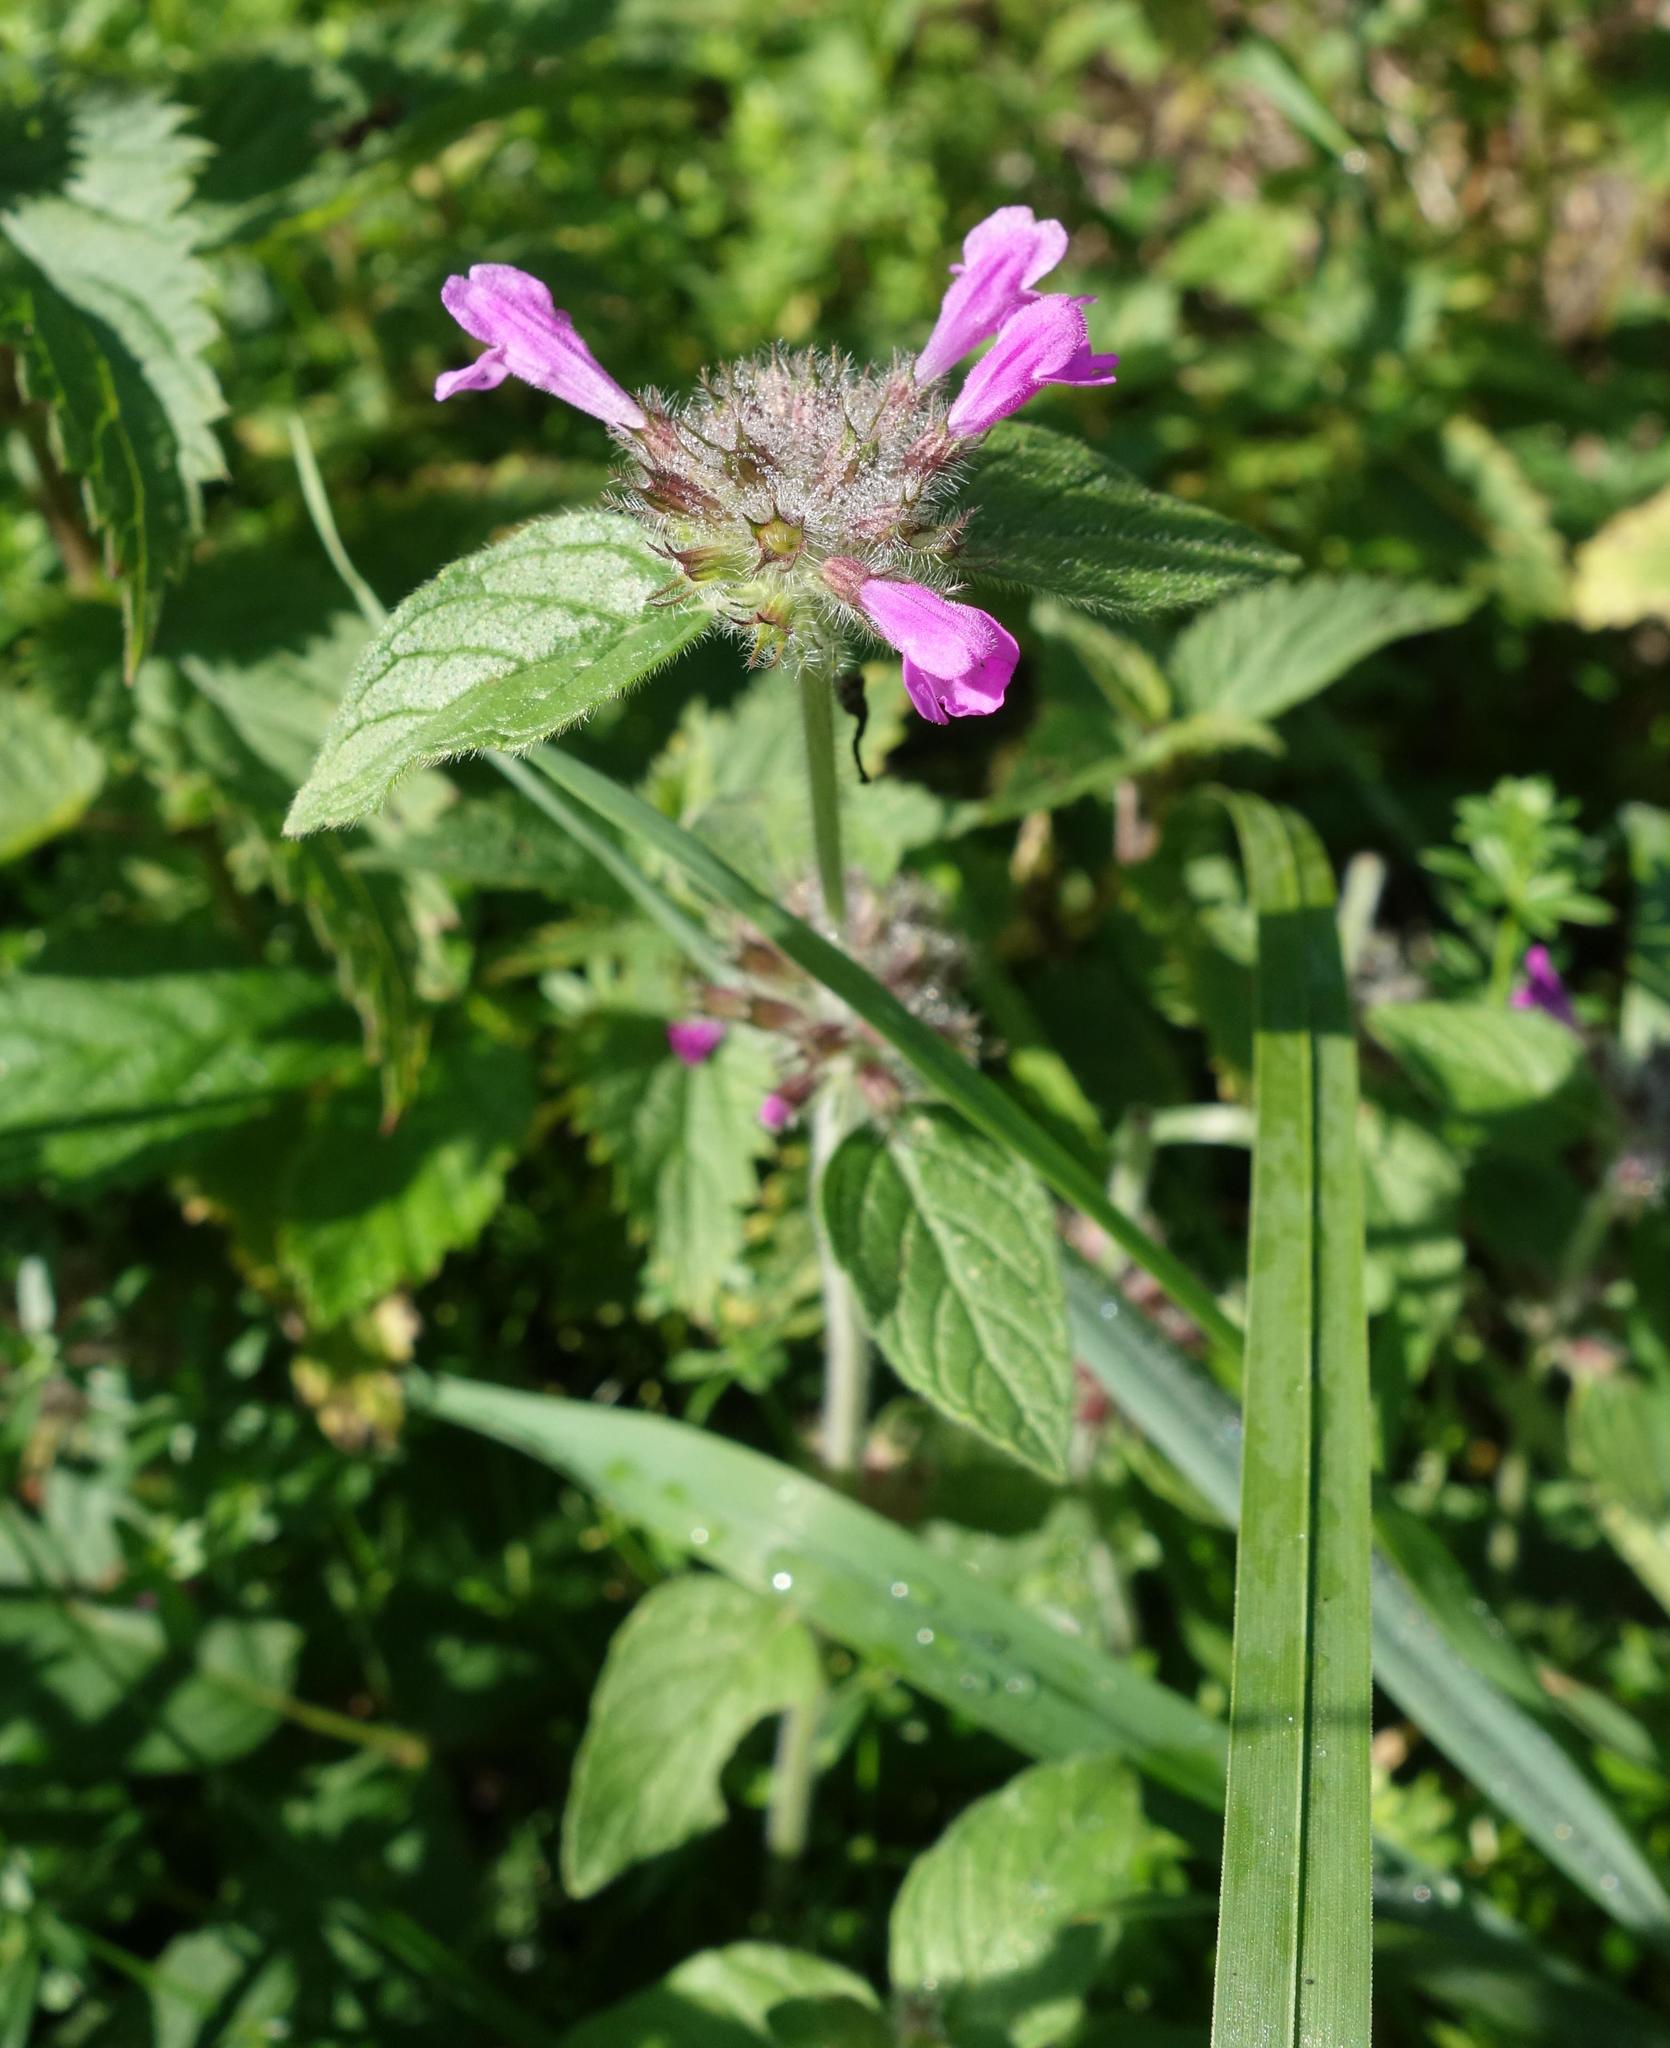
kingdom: Plantae
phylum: Tracheophyta
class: Magnoliopsida
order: Lamiales
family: Lamiaceae
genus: Clinopodium
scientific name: Clinopodium vulgare
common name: Wild basil
